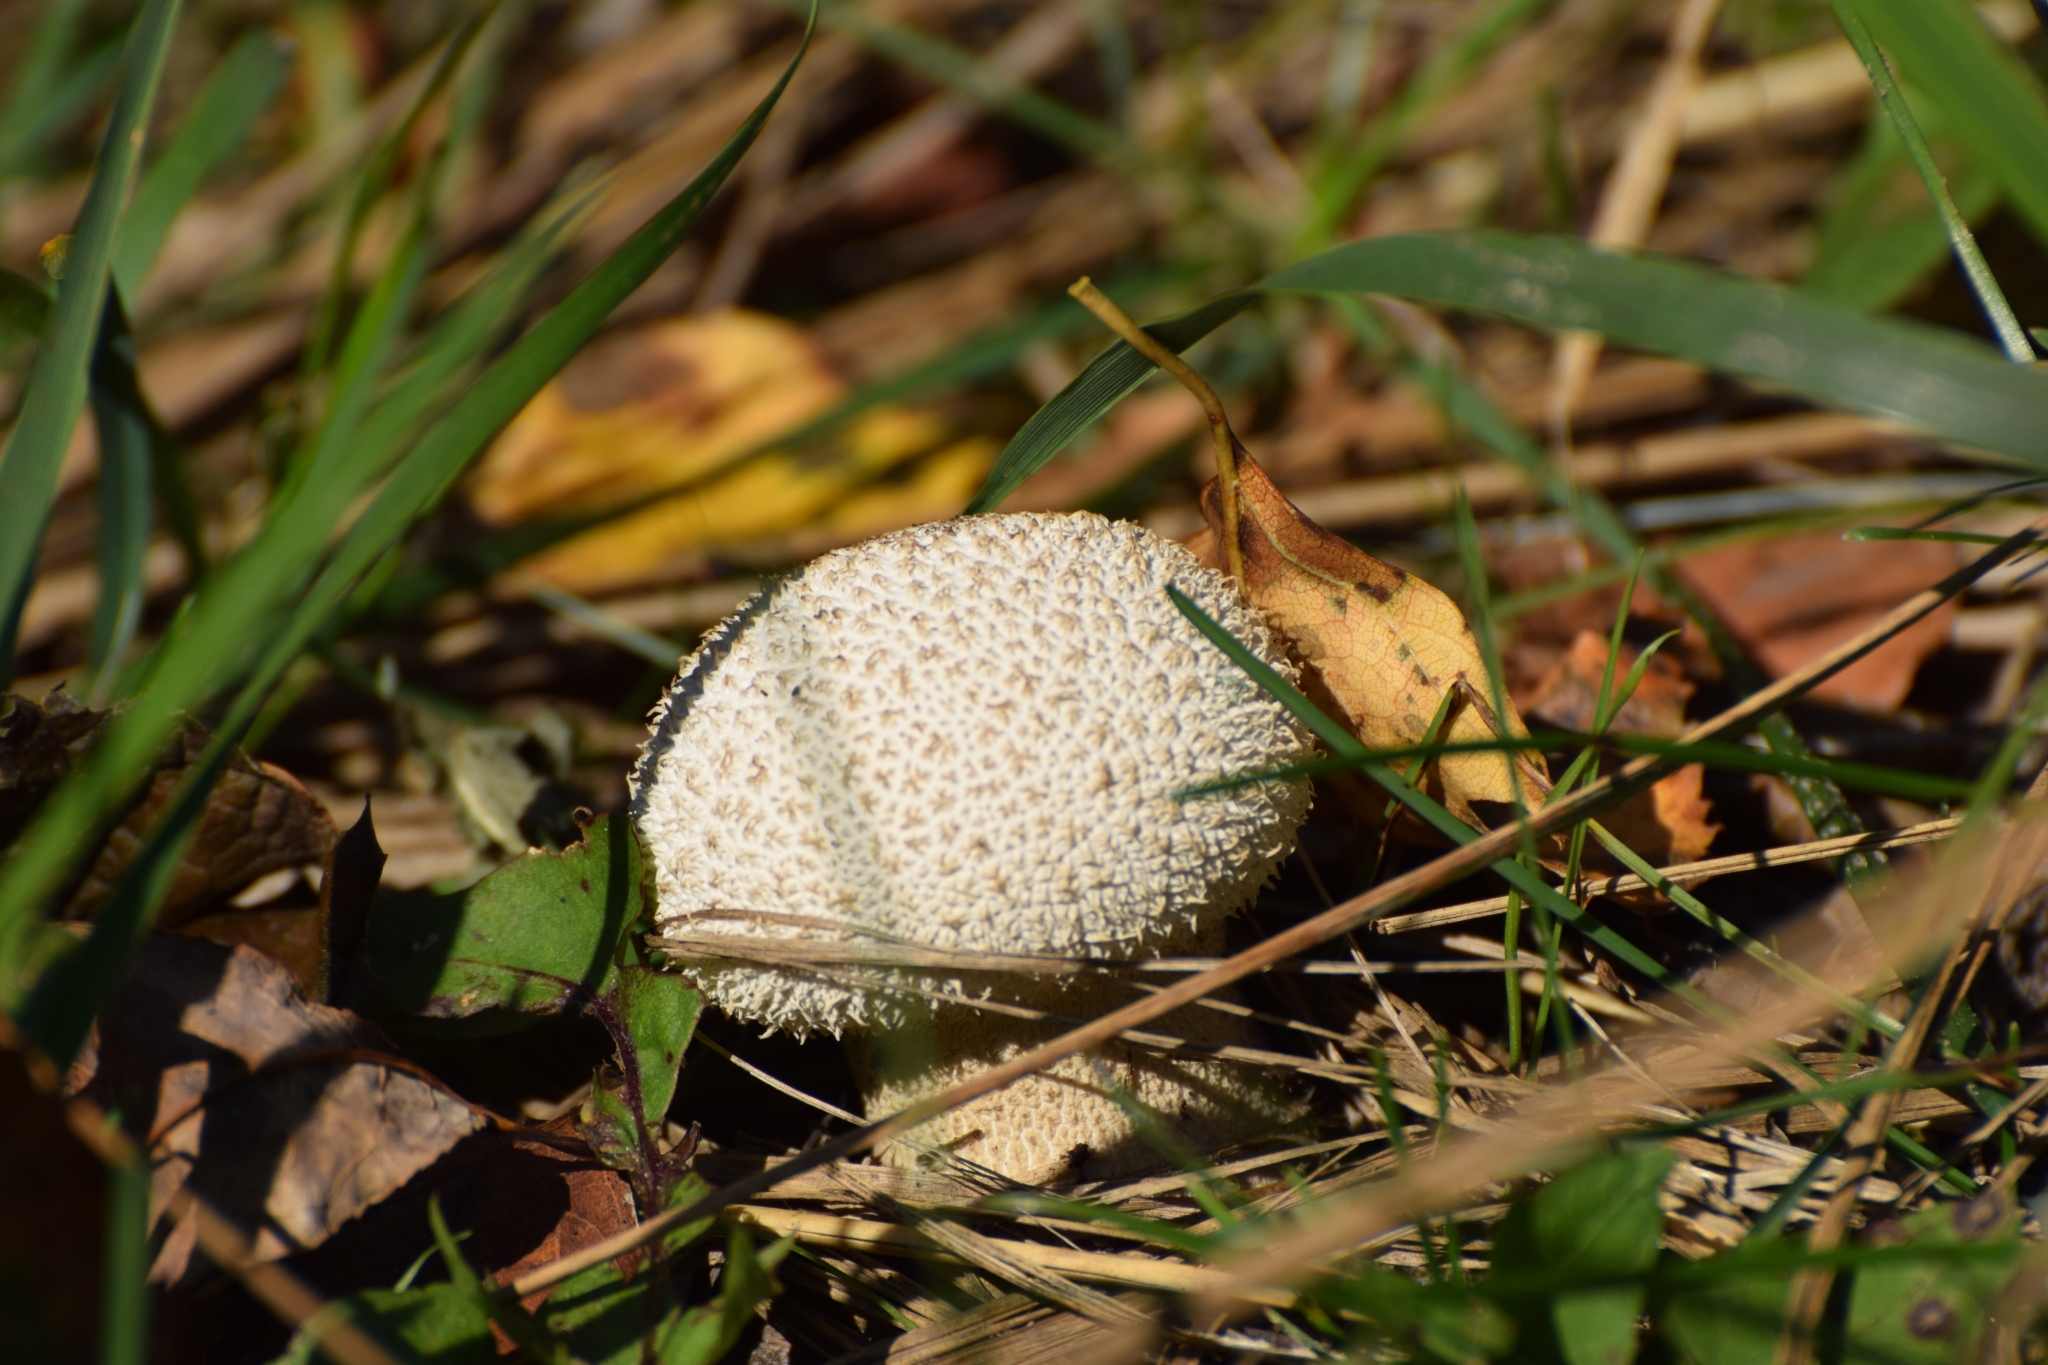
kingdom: Fungi
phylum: Basidiomycota
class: Agaricomycetes
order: Agaricales
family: Lycoperdaceae
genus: Lycoperdon
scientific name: Lycoperdon perlatum
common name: Common puffball
